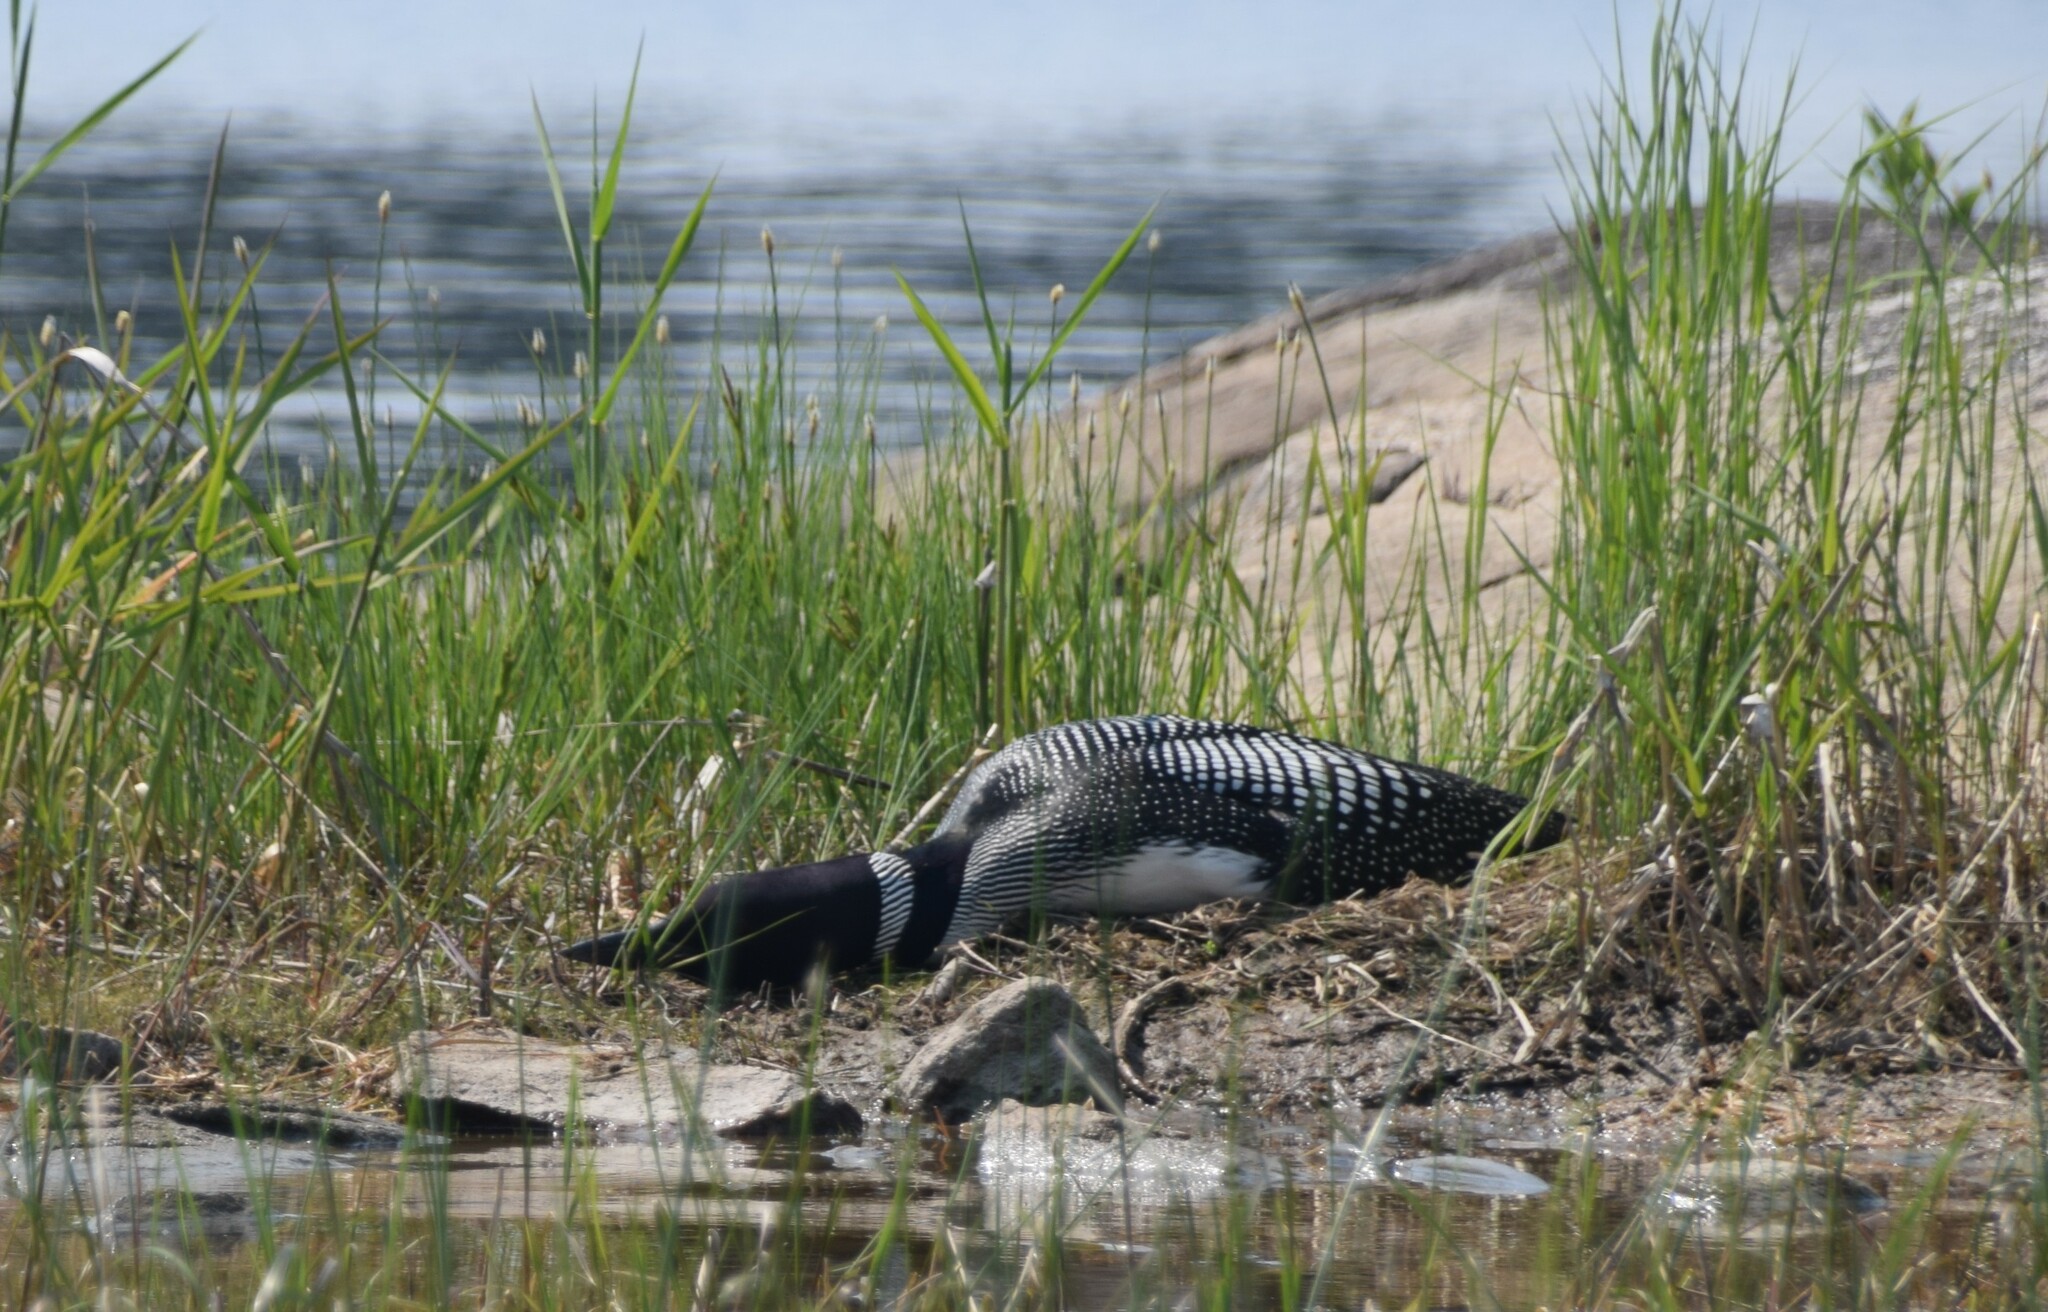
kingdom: Animalia
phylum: Chordata
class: Aves
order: Gaviiformes
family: Gaviidae
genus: Gavia
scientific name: Gavia immer
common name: Common loon
